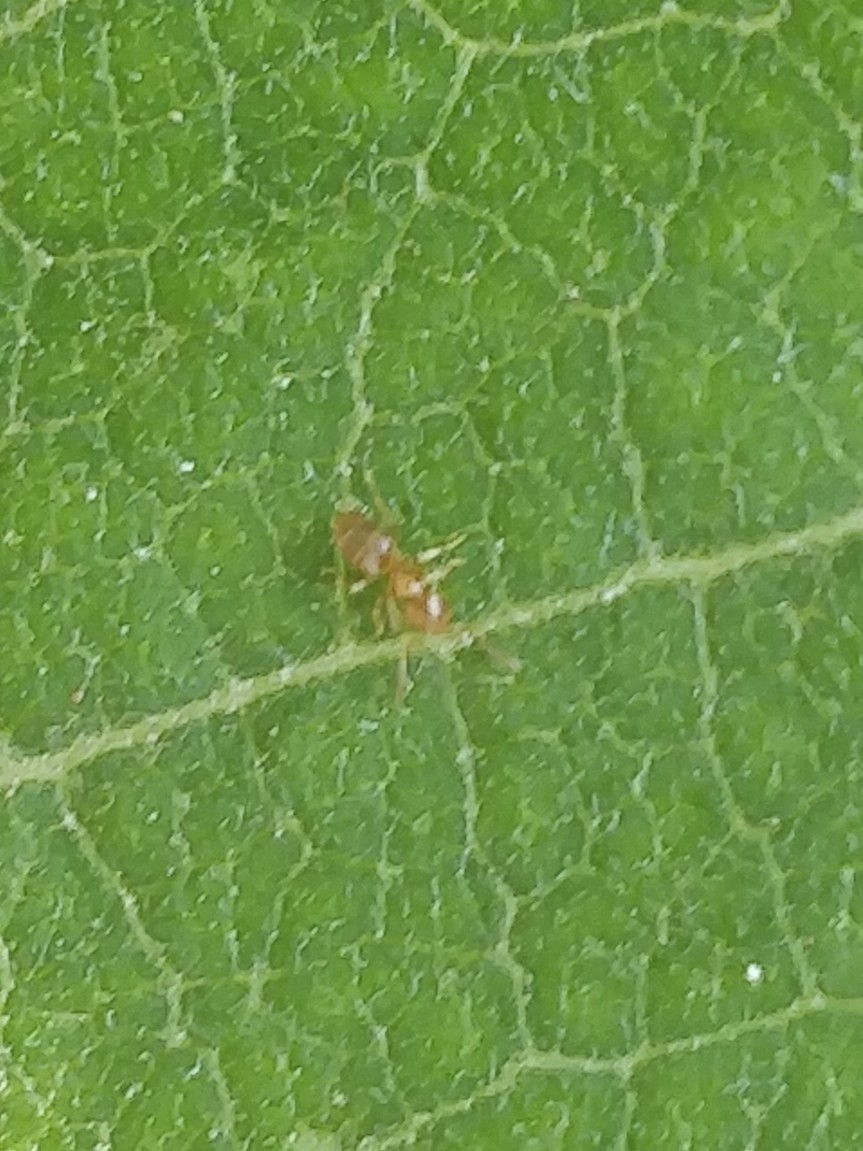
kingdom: Animalia
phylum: Arthropoda
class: Insecta
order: Hymenoptera
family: Formicidae
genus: Brachymyrmex
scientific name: Brachymyrmex depilis
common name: Hairless rover ant
